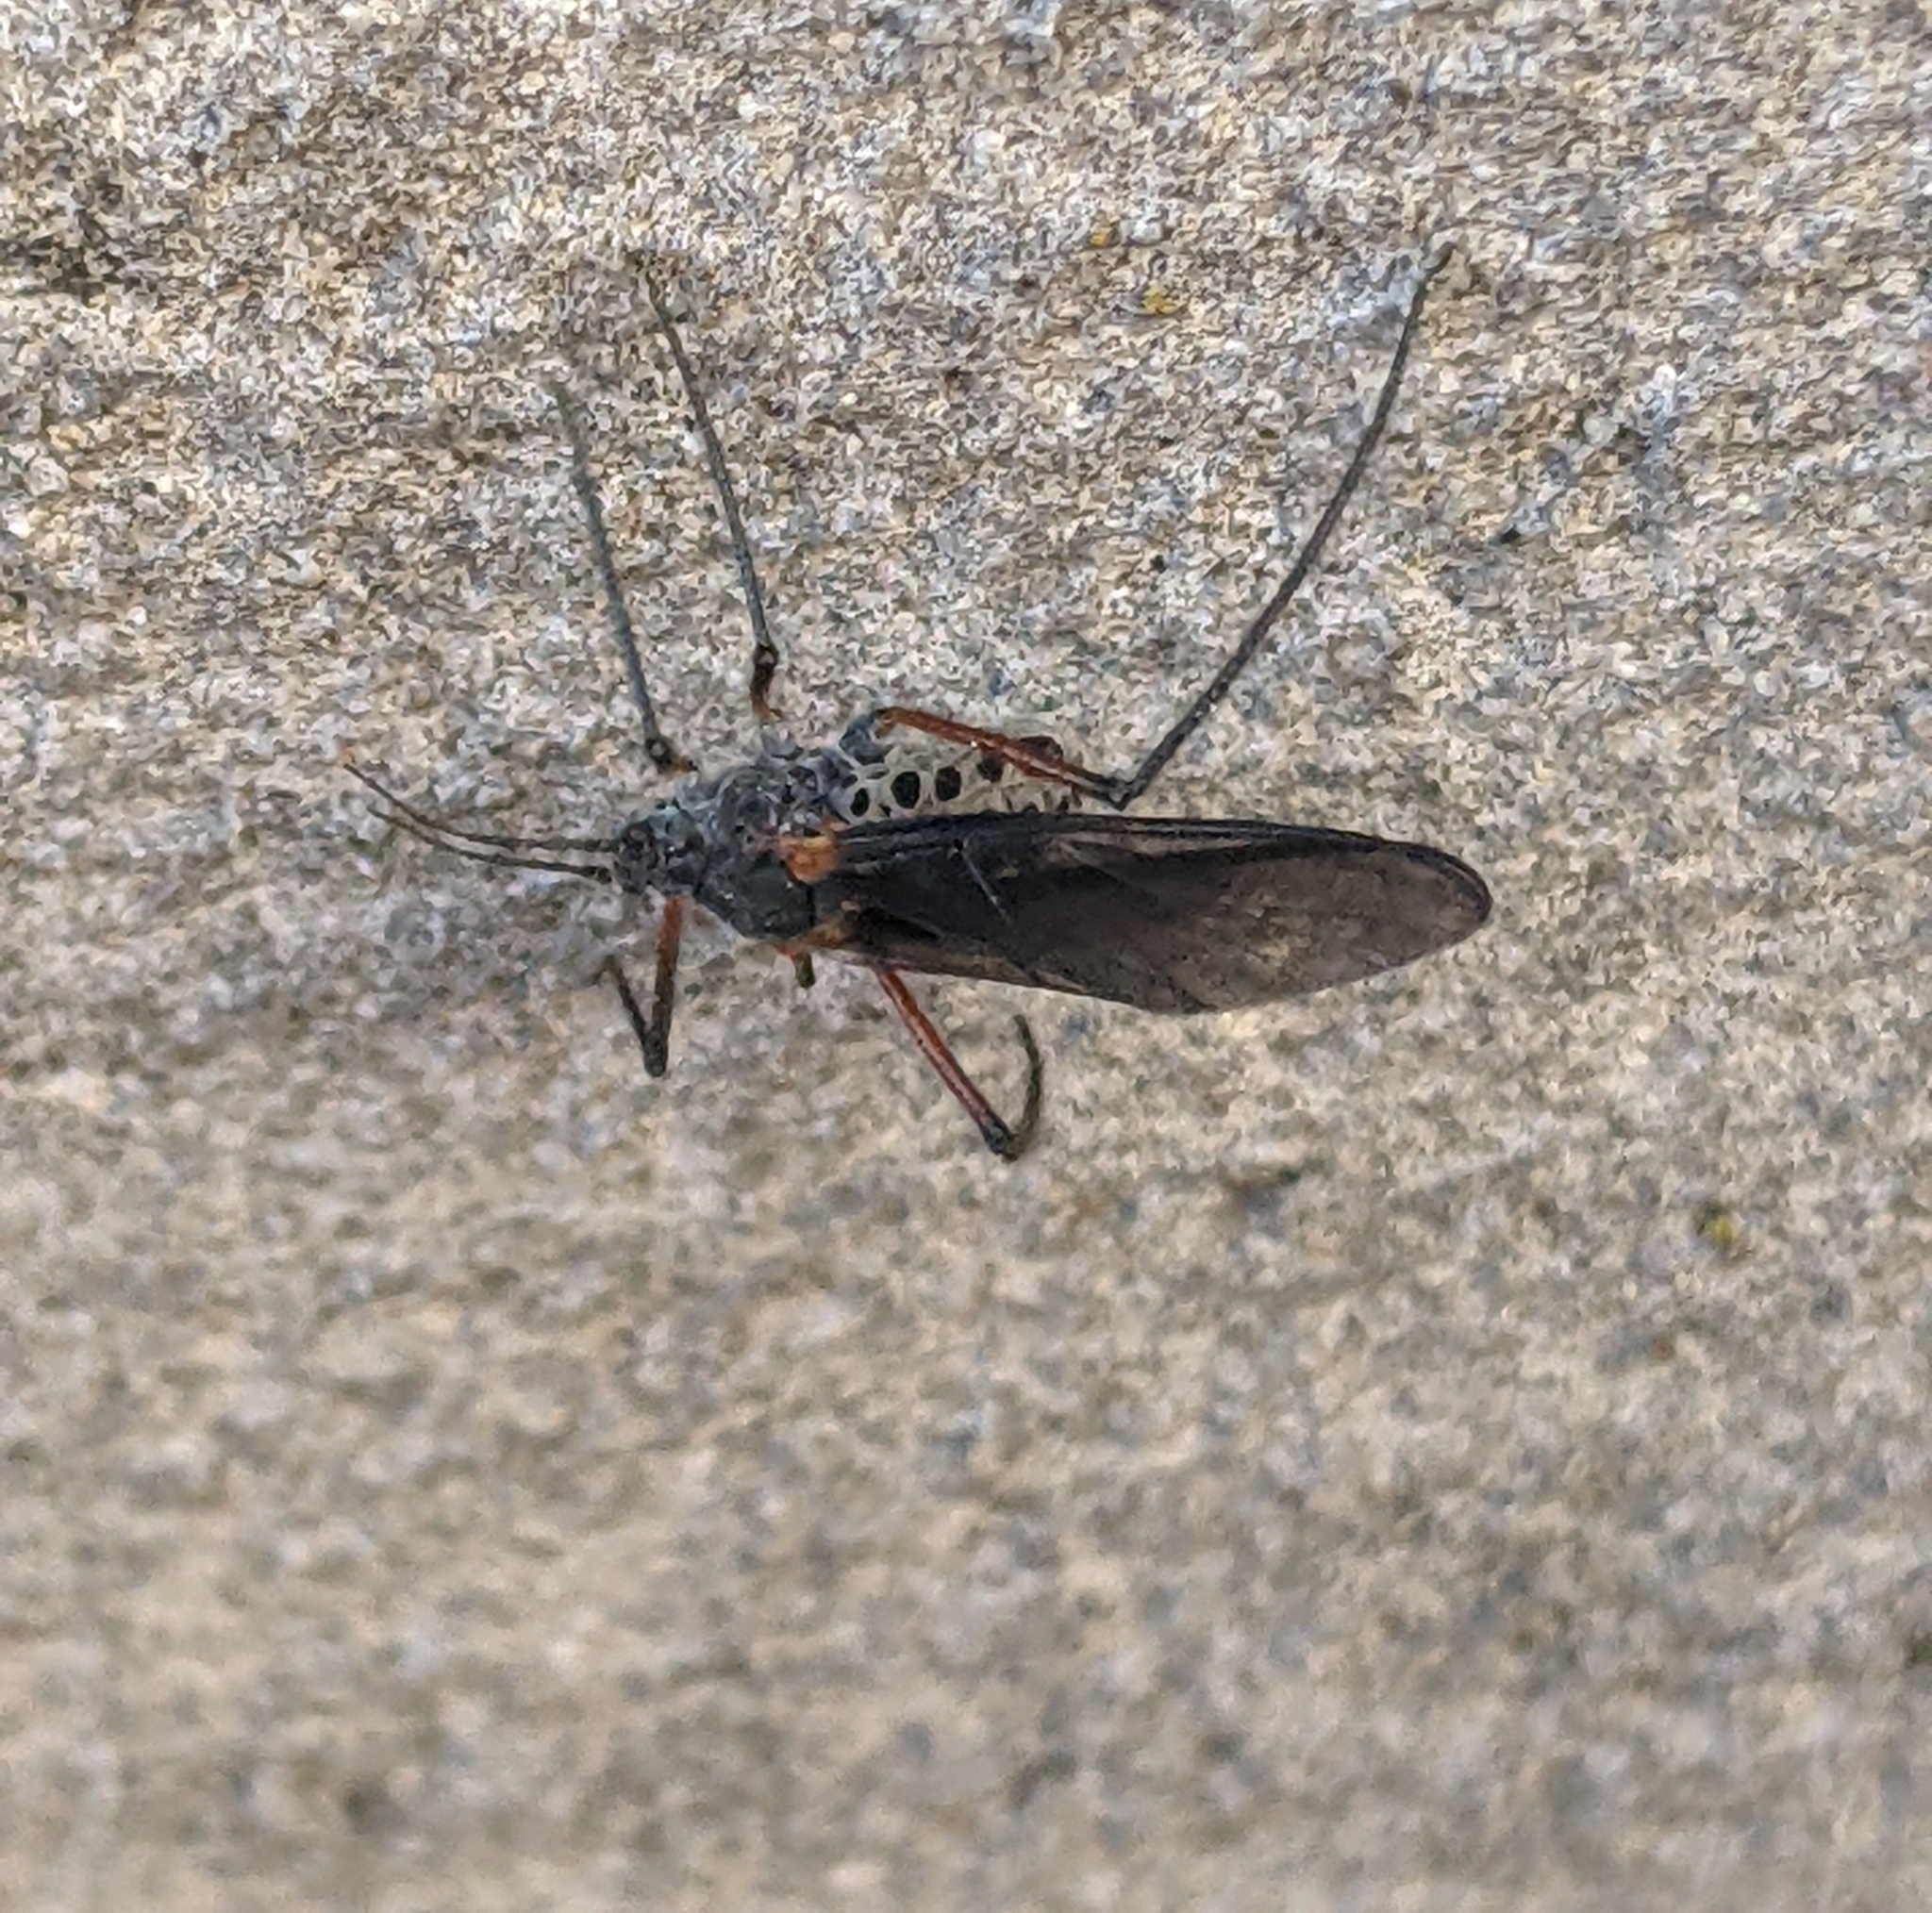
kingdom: Animalia
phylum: Arthropoda
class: Insecta
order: Hemiptera
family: Aphididae
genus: Longistigma
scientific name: Longistigma caryae
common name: Giant bark aphid
